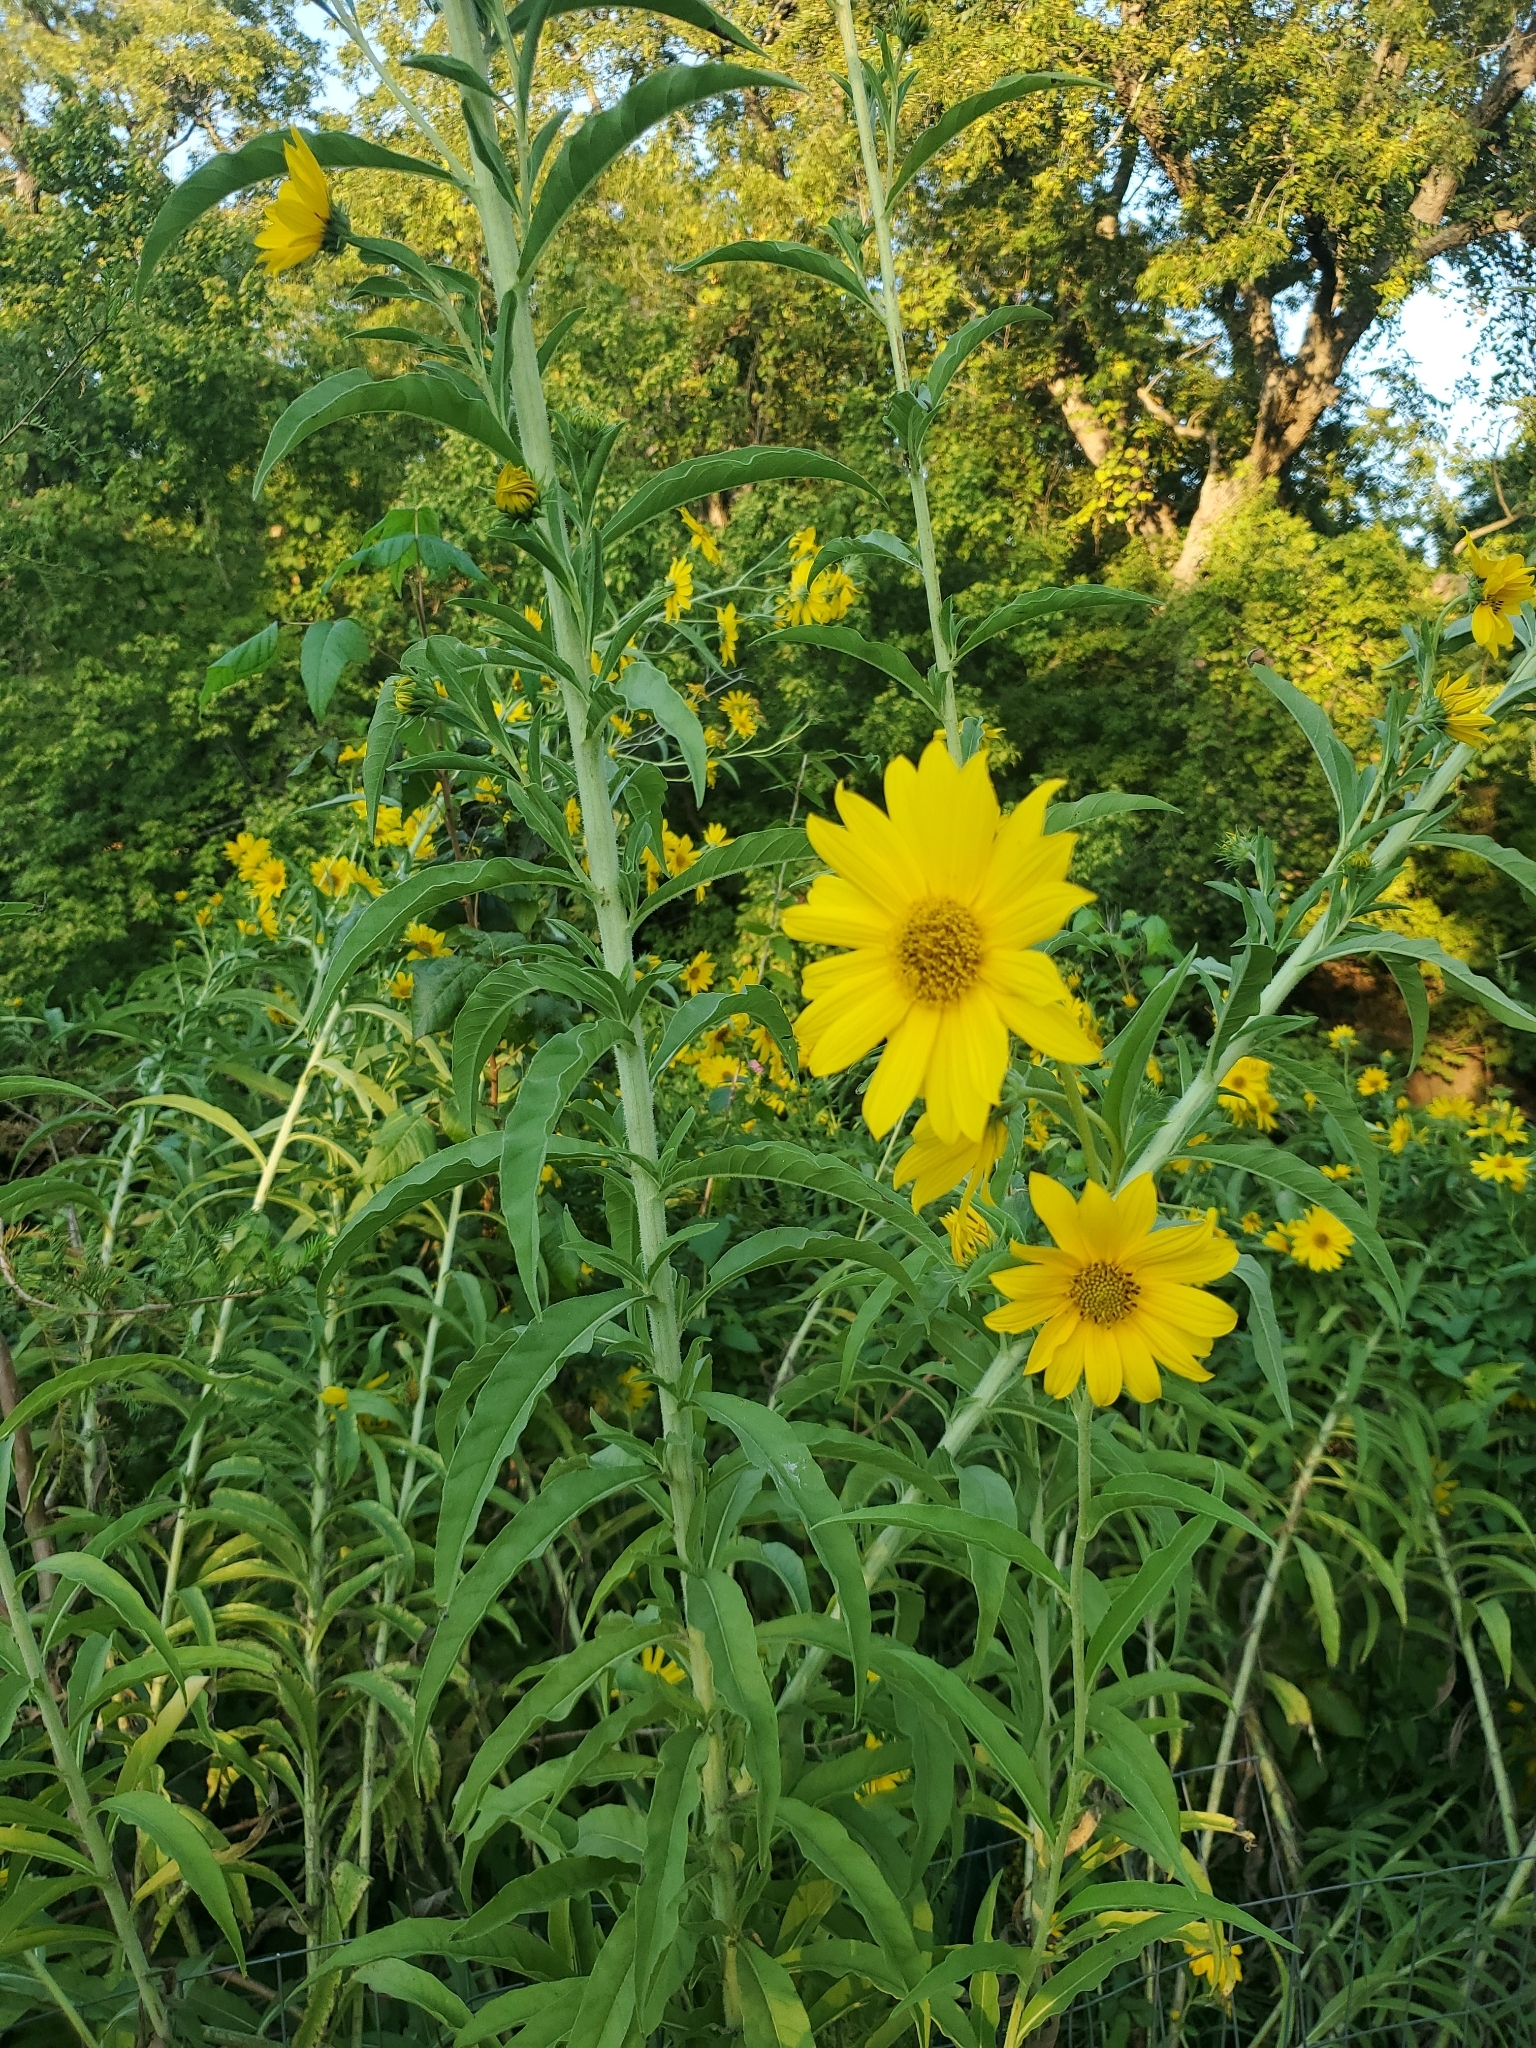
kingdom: Plantae
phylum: Tracheophyta
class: Magnoliopsida
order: Asterales
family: Asteraceae
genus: Helianthus
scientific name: Helianthus maximiliani
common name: Maximilian's sunflower
